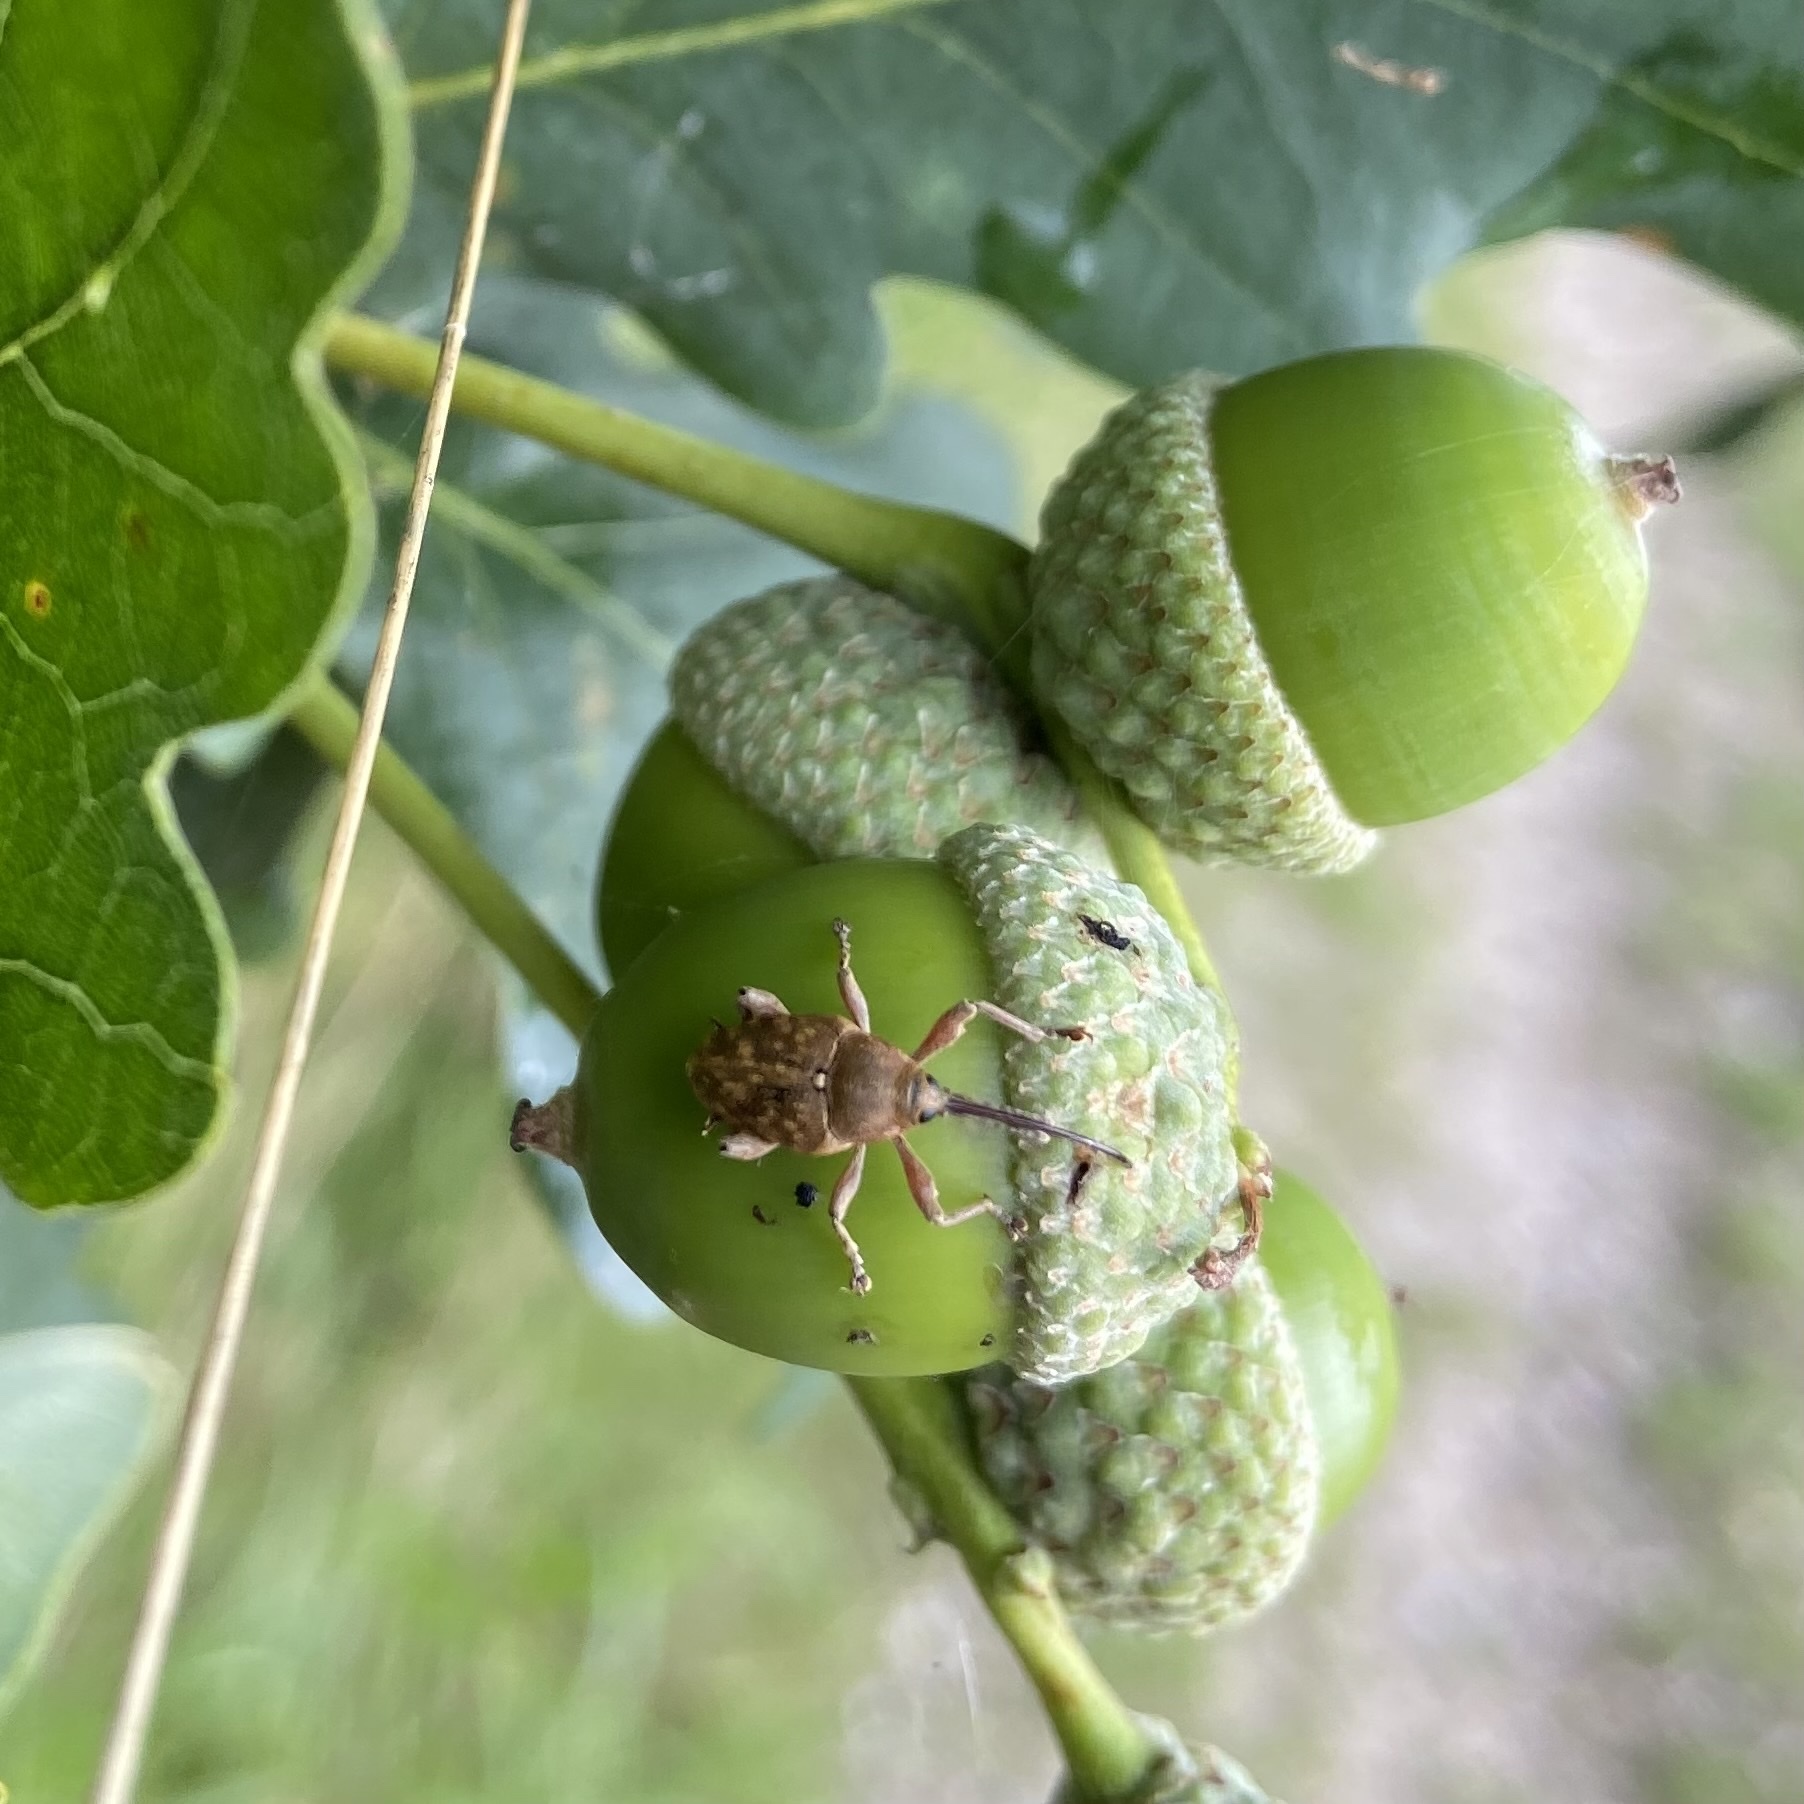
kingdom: Animalia
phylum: Arthropoda
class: Insecta
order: Coleoptera
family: Curculionidae
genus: Curculio
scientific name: Curculio glandium
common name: Acorn weevil
